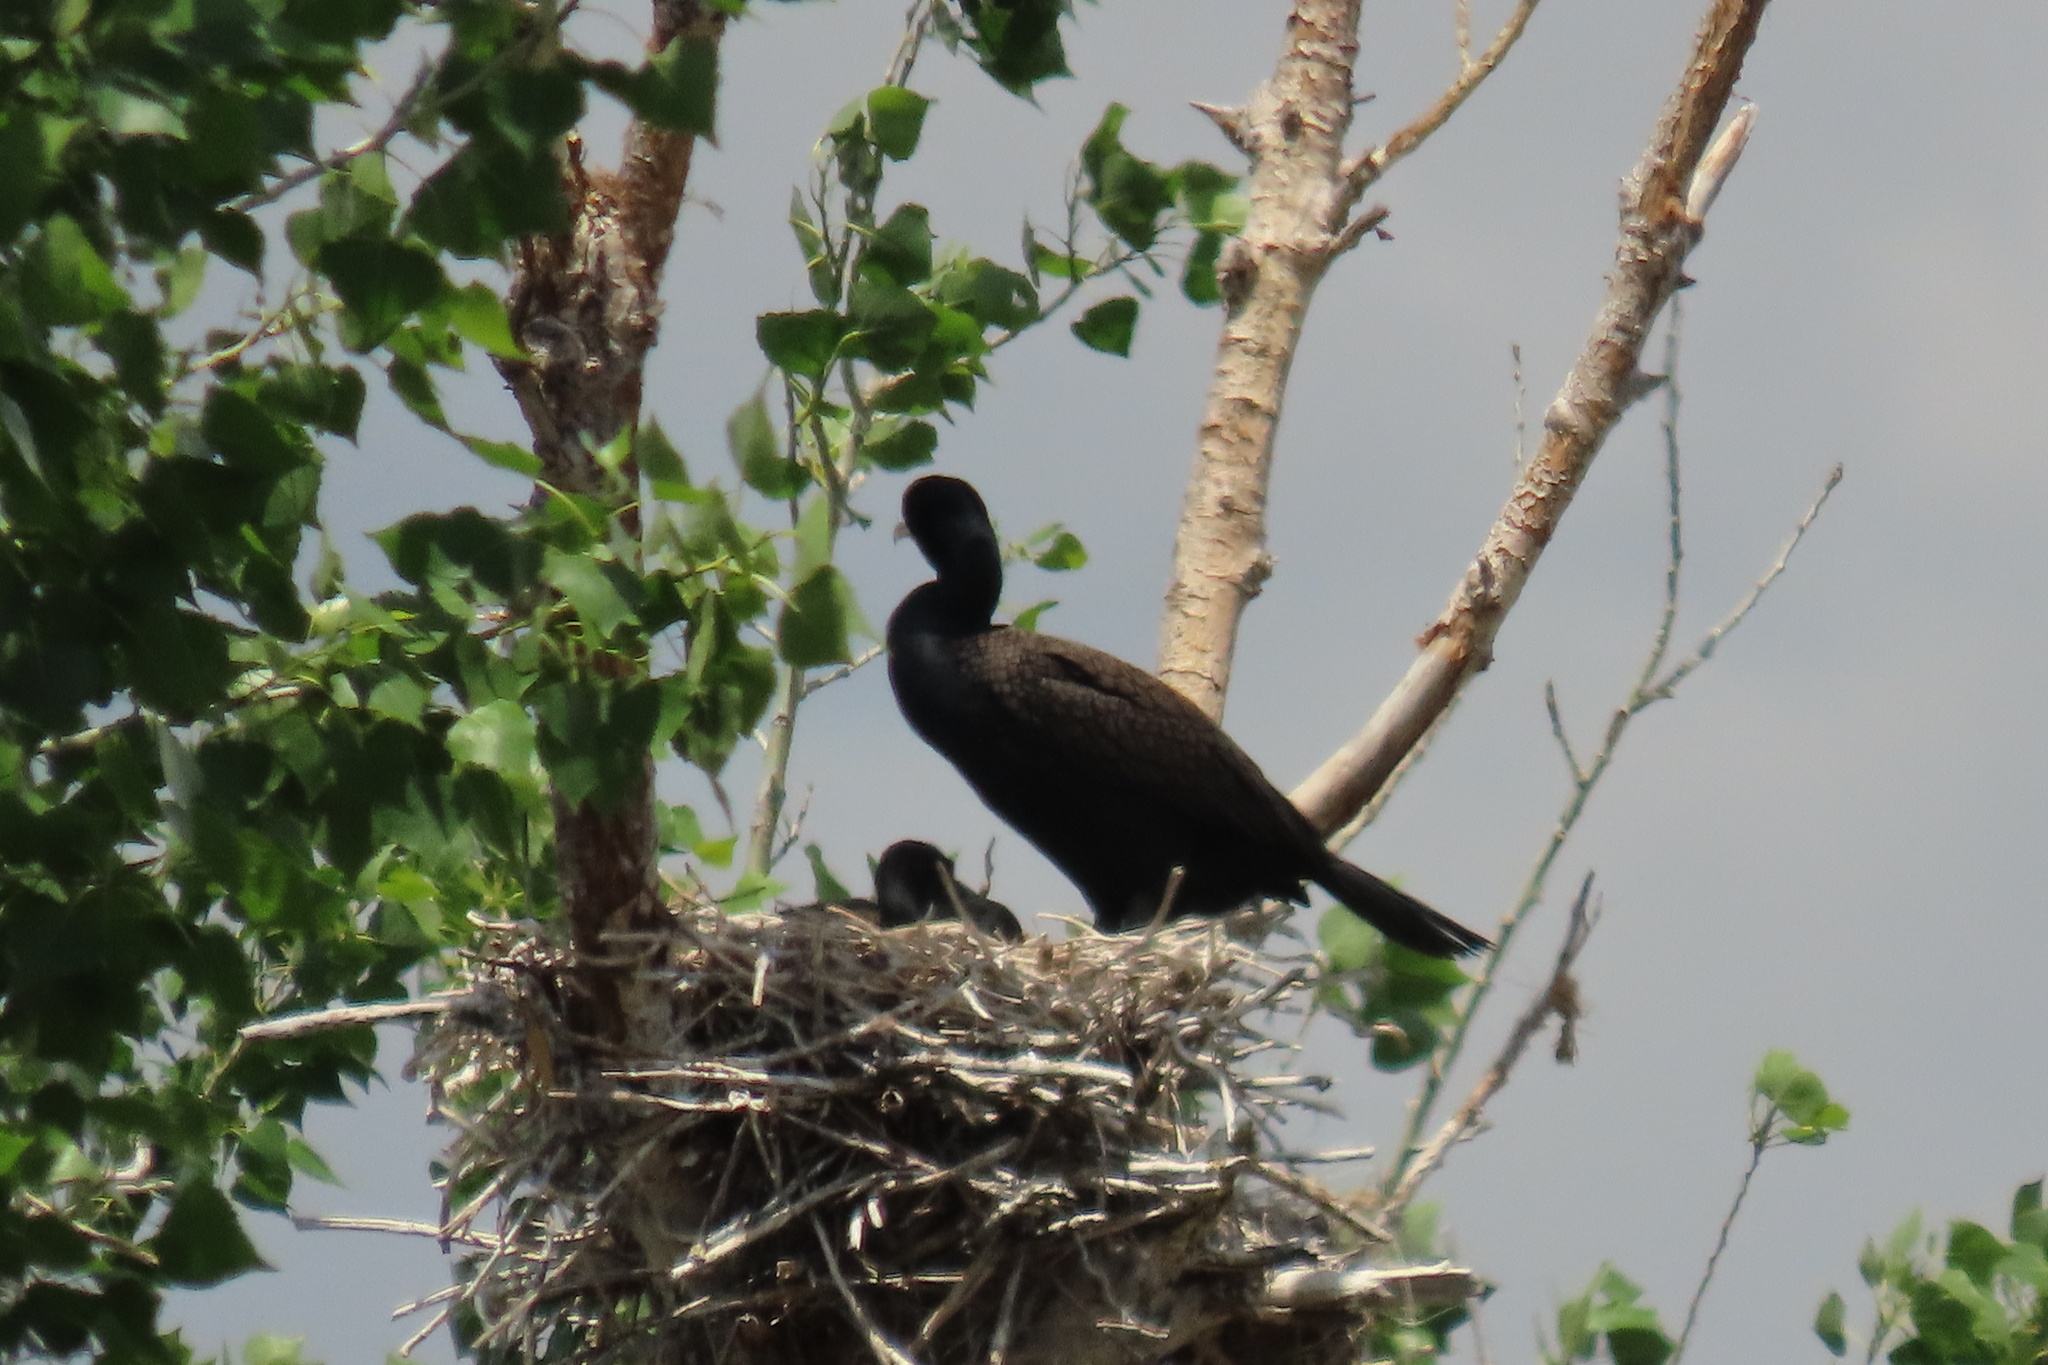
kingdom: Animalia
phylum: Chordata
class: Aves
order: Suliformes
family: Phalacrocoracidae
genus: Phalacrocorax
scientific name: Phalacrocorax auritus
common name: Double-crested cormorant
